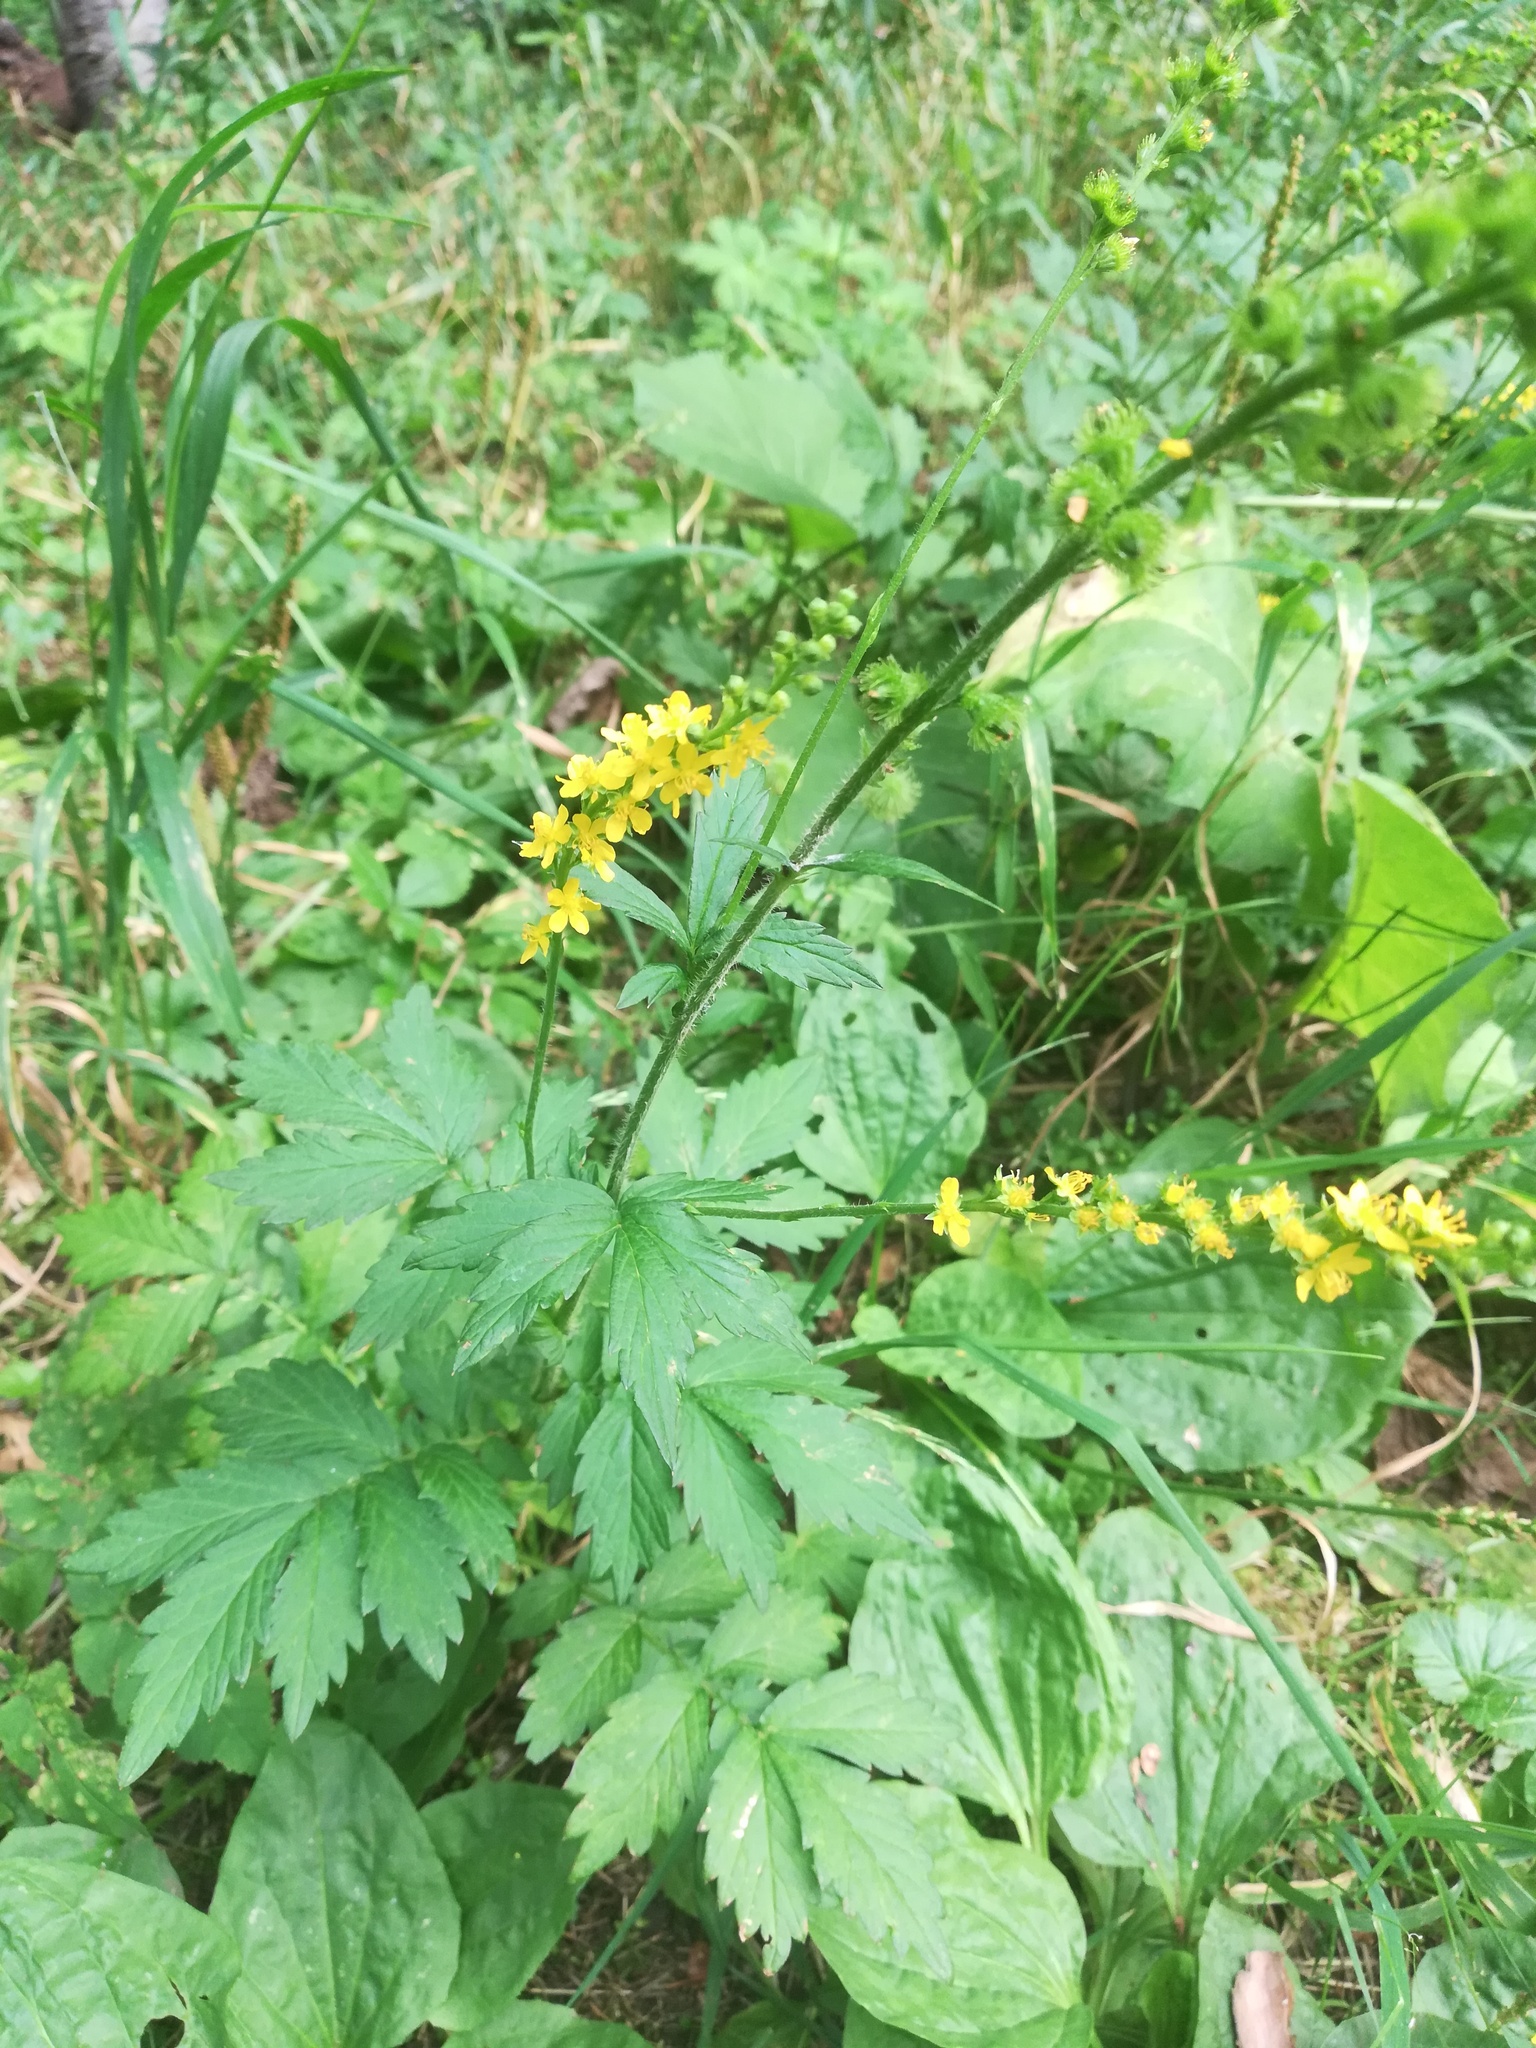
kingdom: Plantae
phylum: Tracheophyta
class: Magnoliopsida
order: Rosales
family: Rosaceae
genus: Agrimonia
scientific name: Agrimonia pilosa
